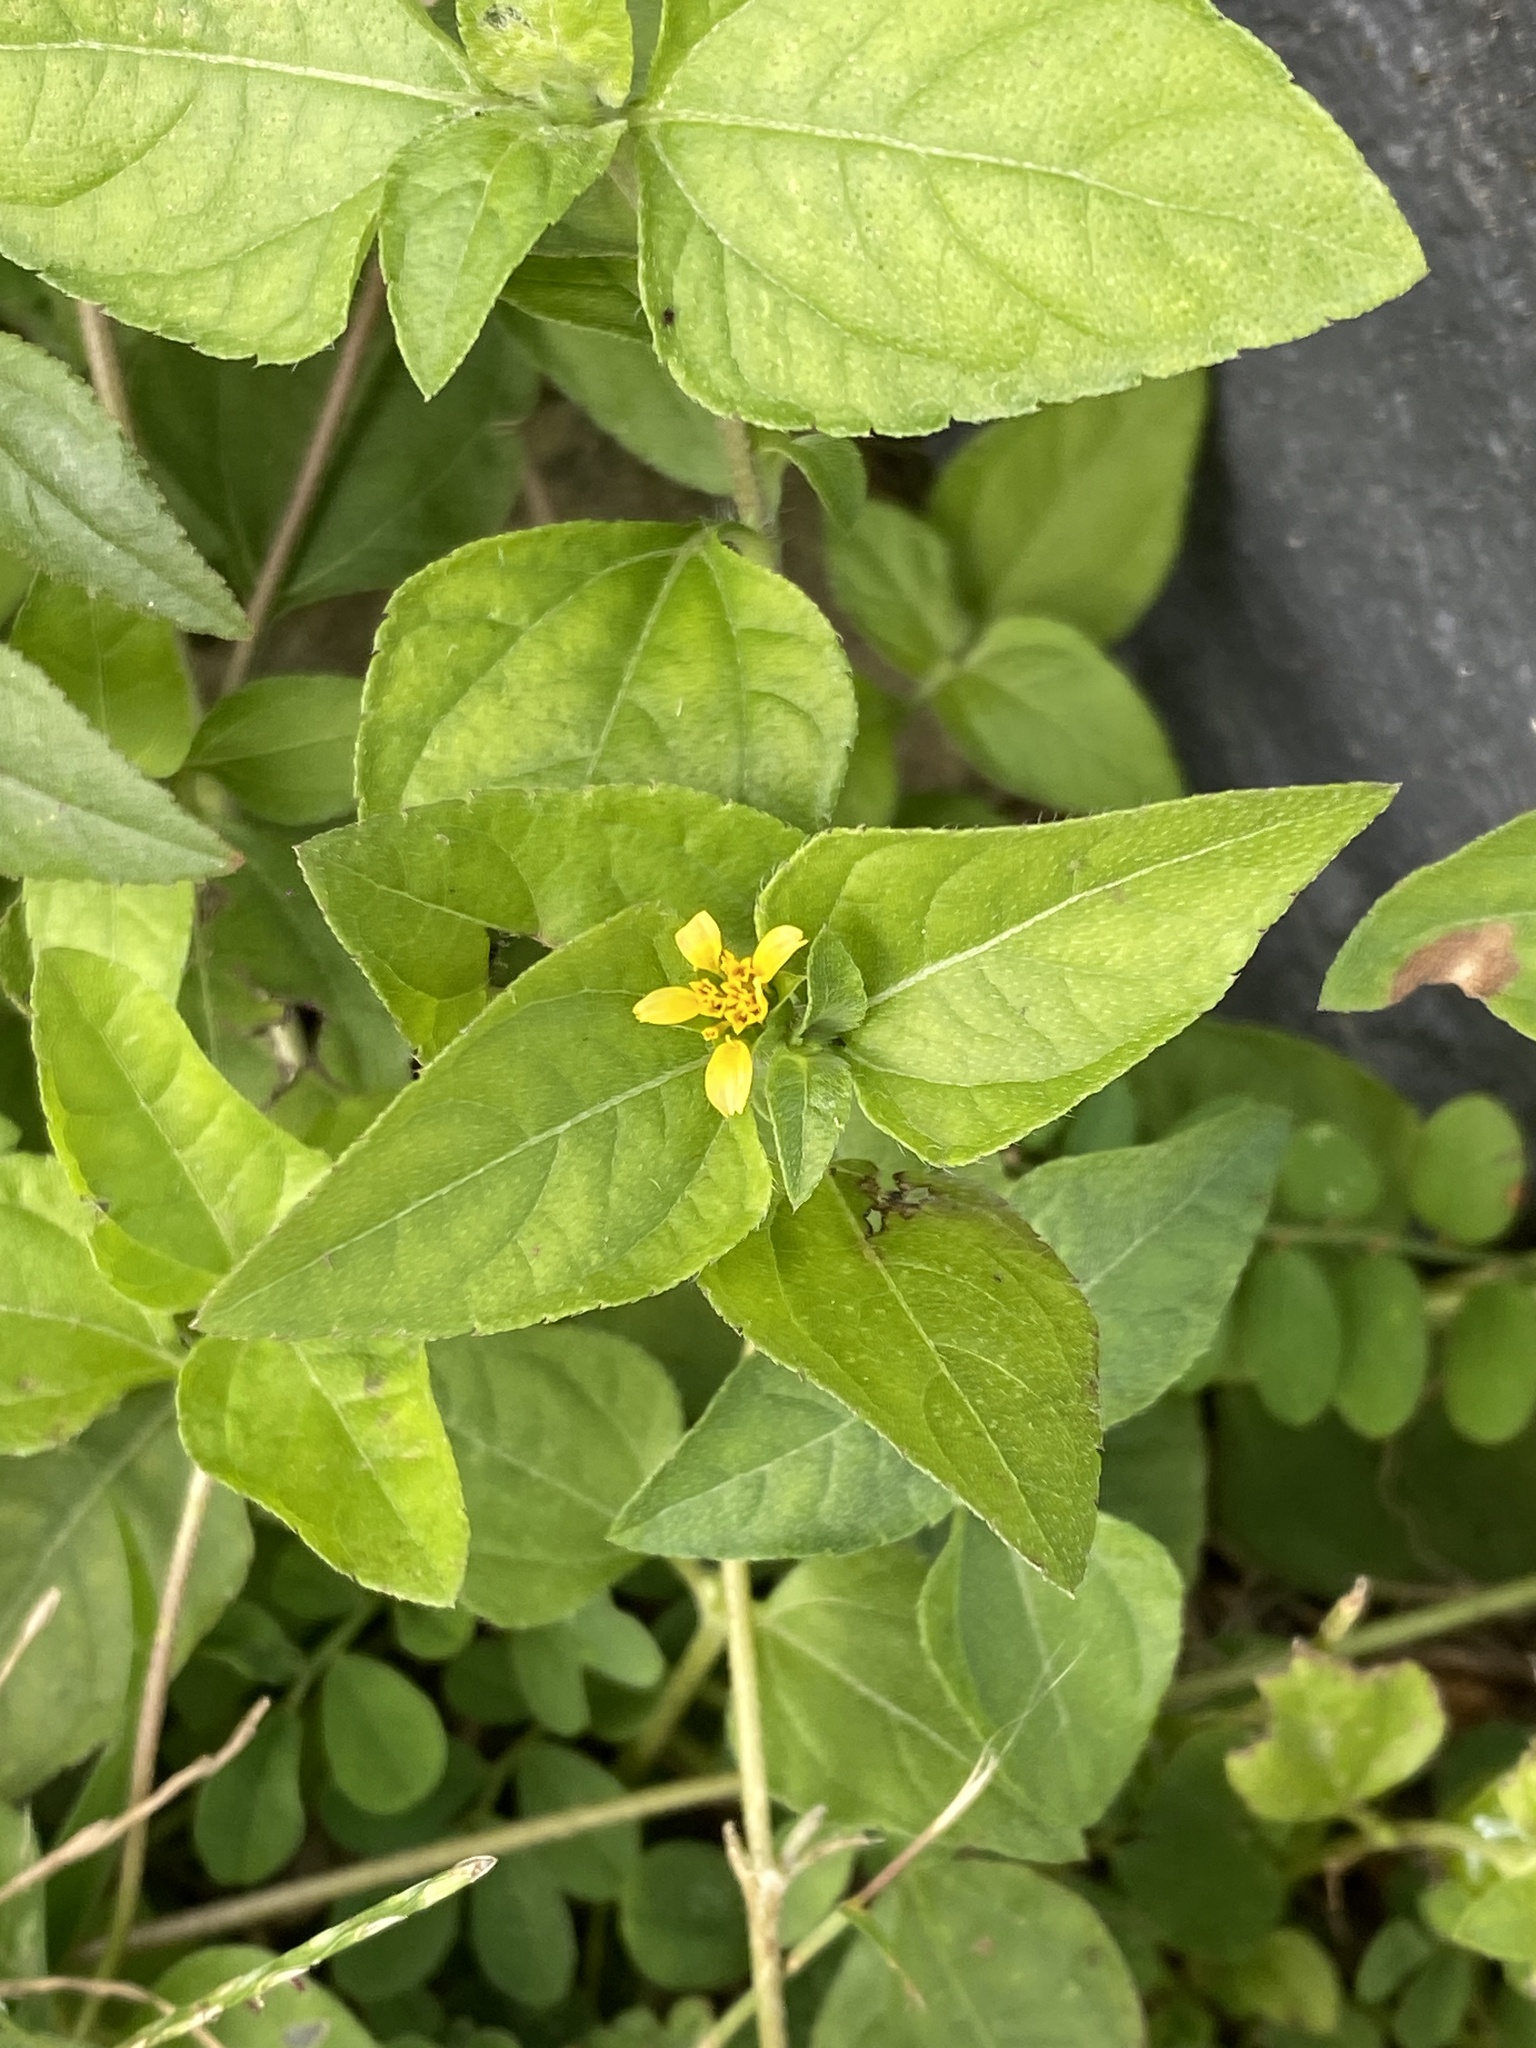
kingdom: Plantae
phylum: Tracheophyta
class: Magnoliopsida
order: Asterales
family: Asteraceae
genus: Calyptocarpus
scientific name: Calyptocarpus vialis
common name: Straggler daisy
